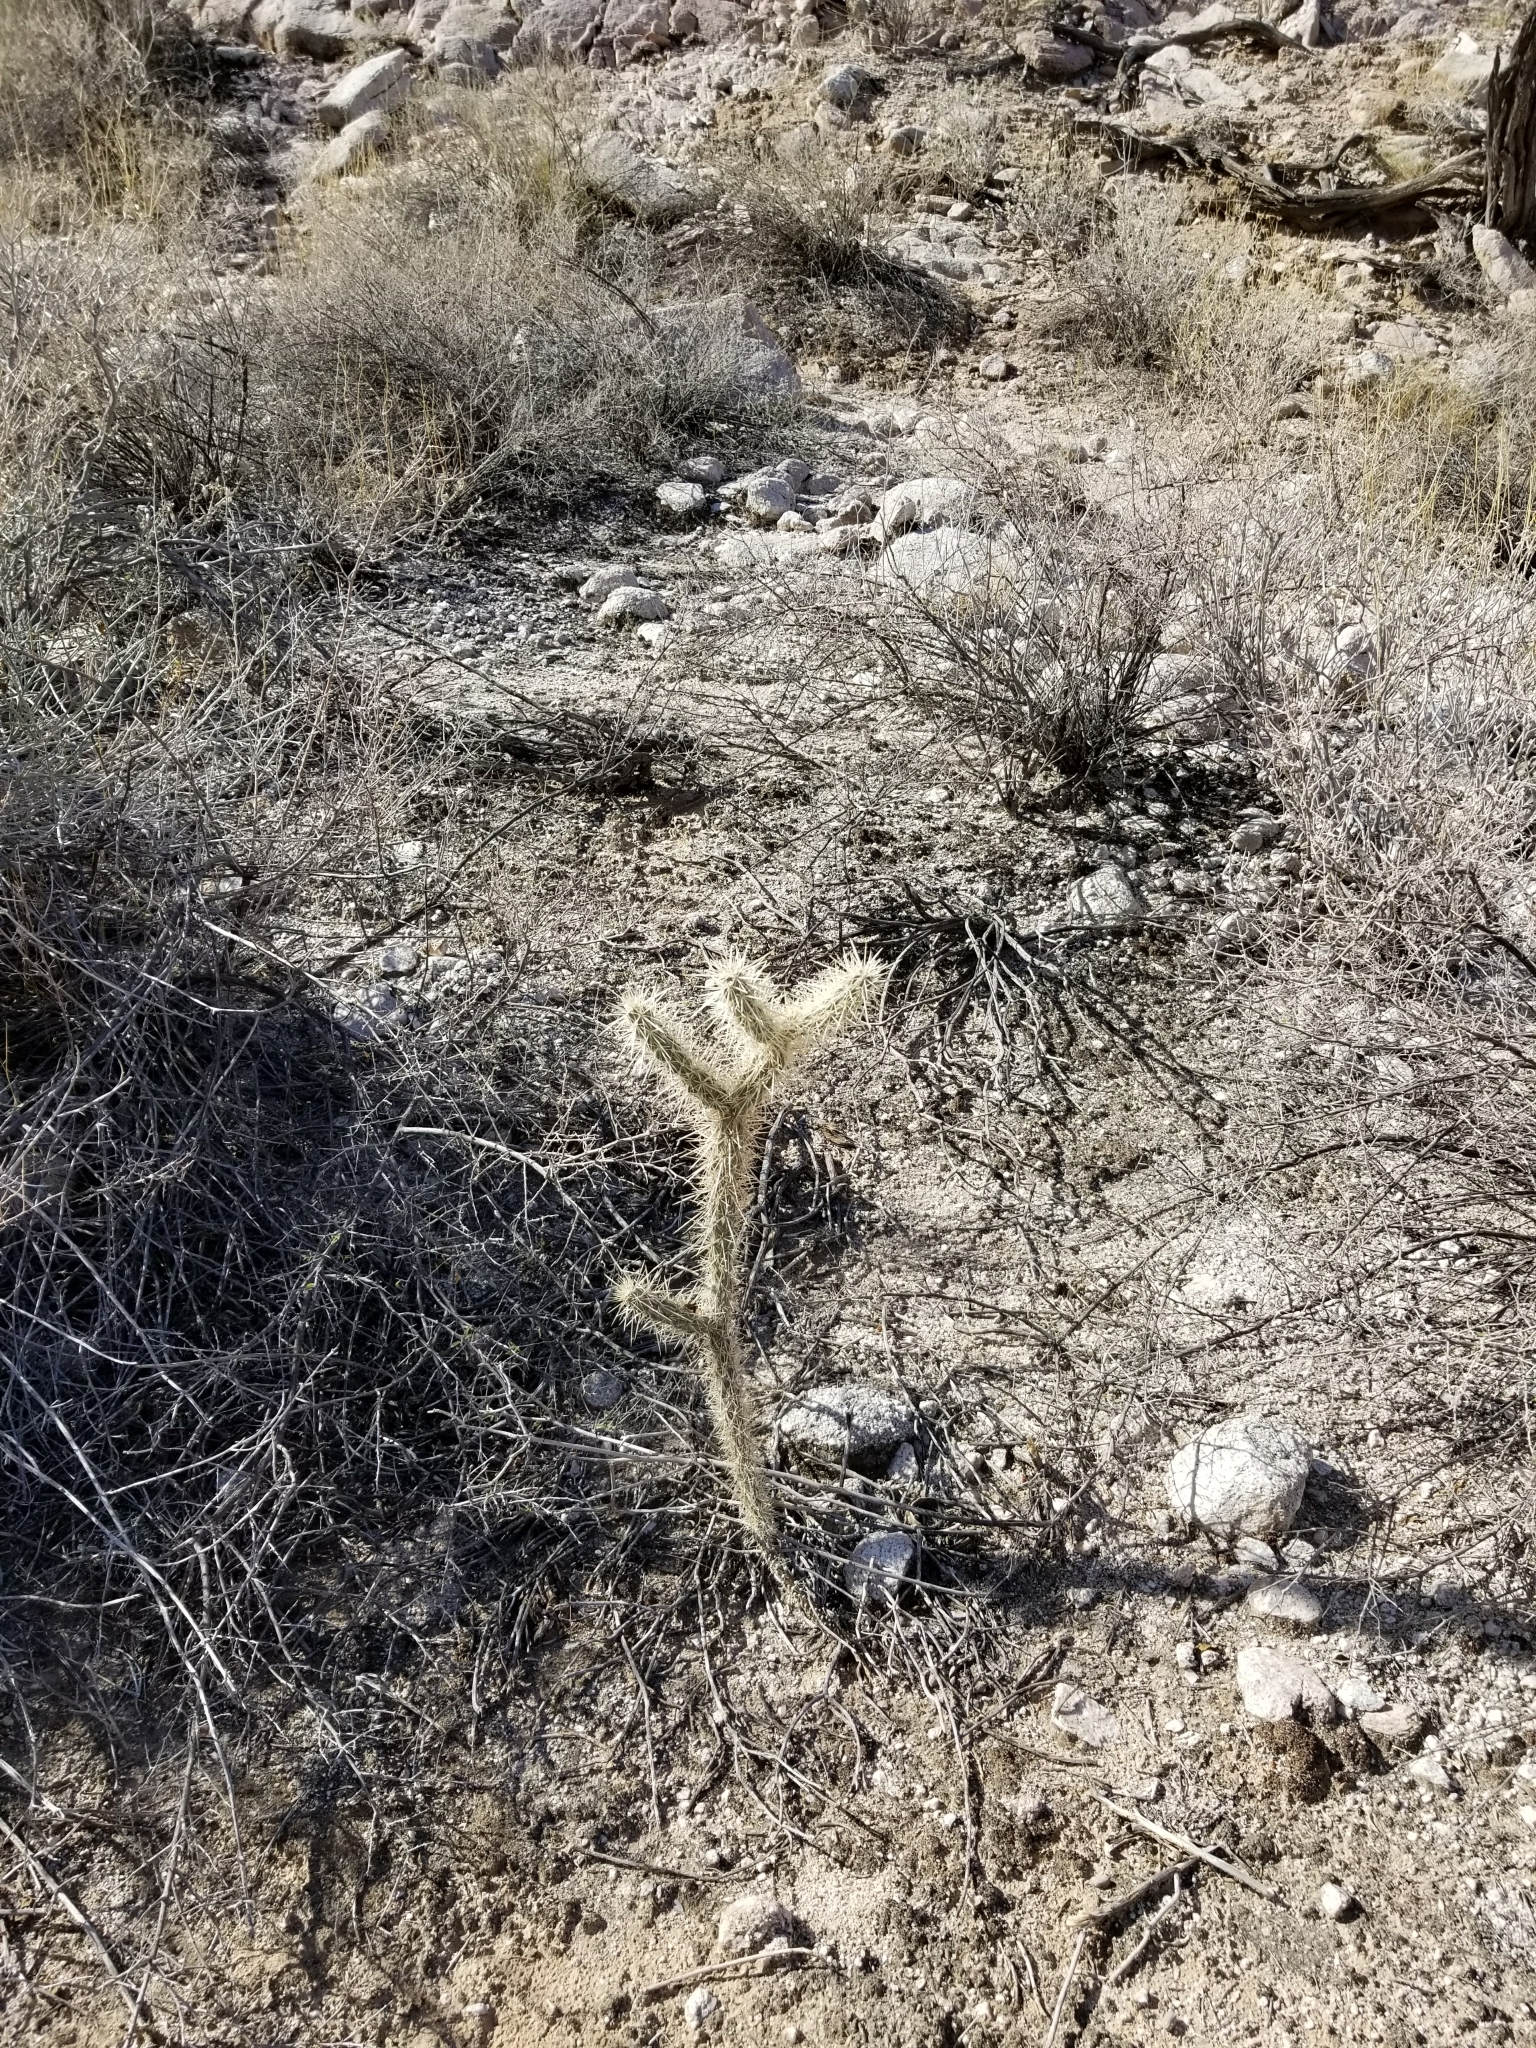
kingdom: Plantae
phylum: Tracheophyta
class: Magnoliopsida
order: Caryophyllales
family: Cactaceae
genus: Cylindropuntia
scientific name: Cylindropuntia echinocarpa
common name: Ground cholla
